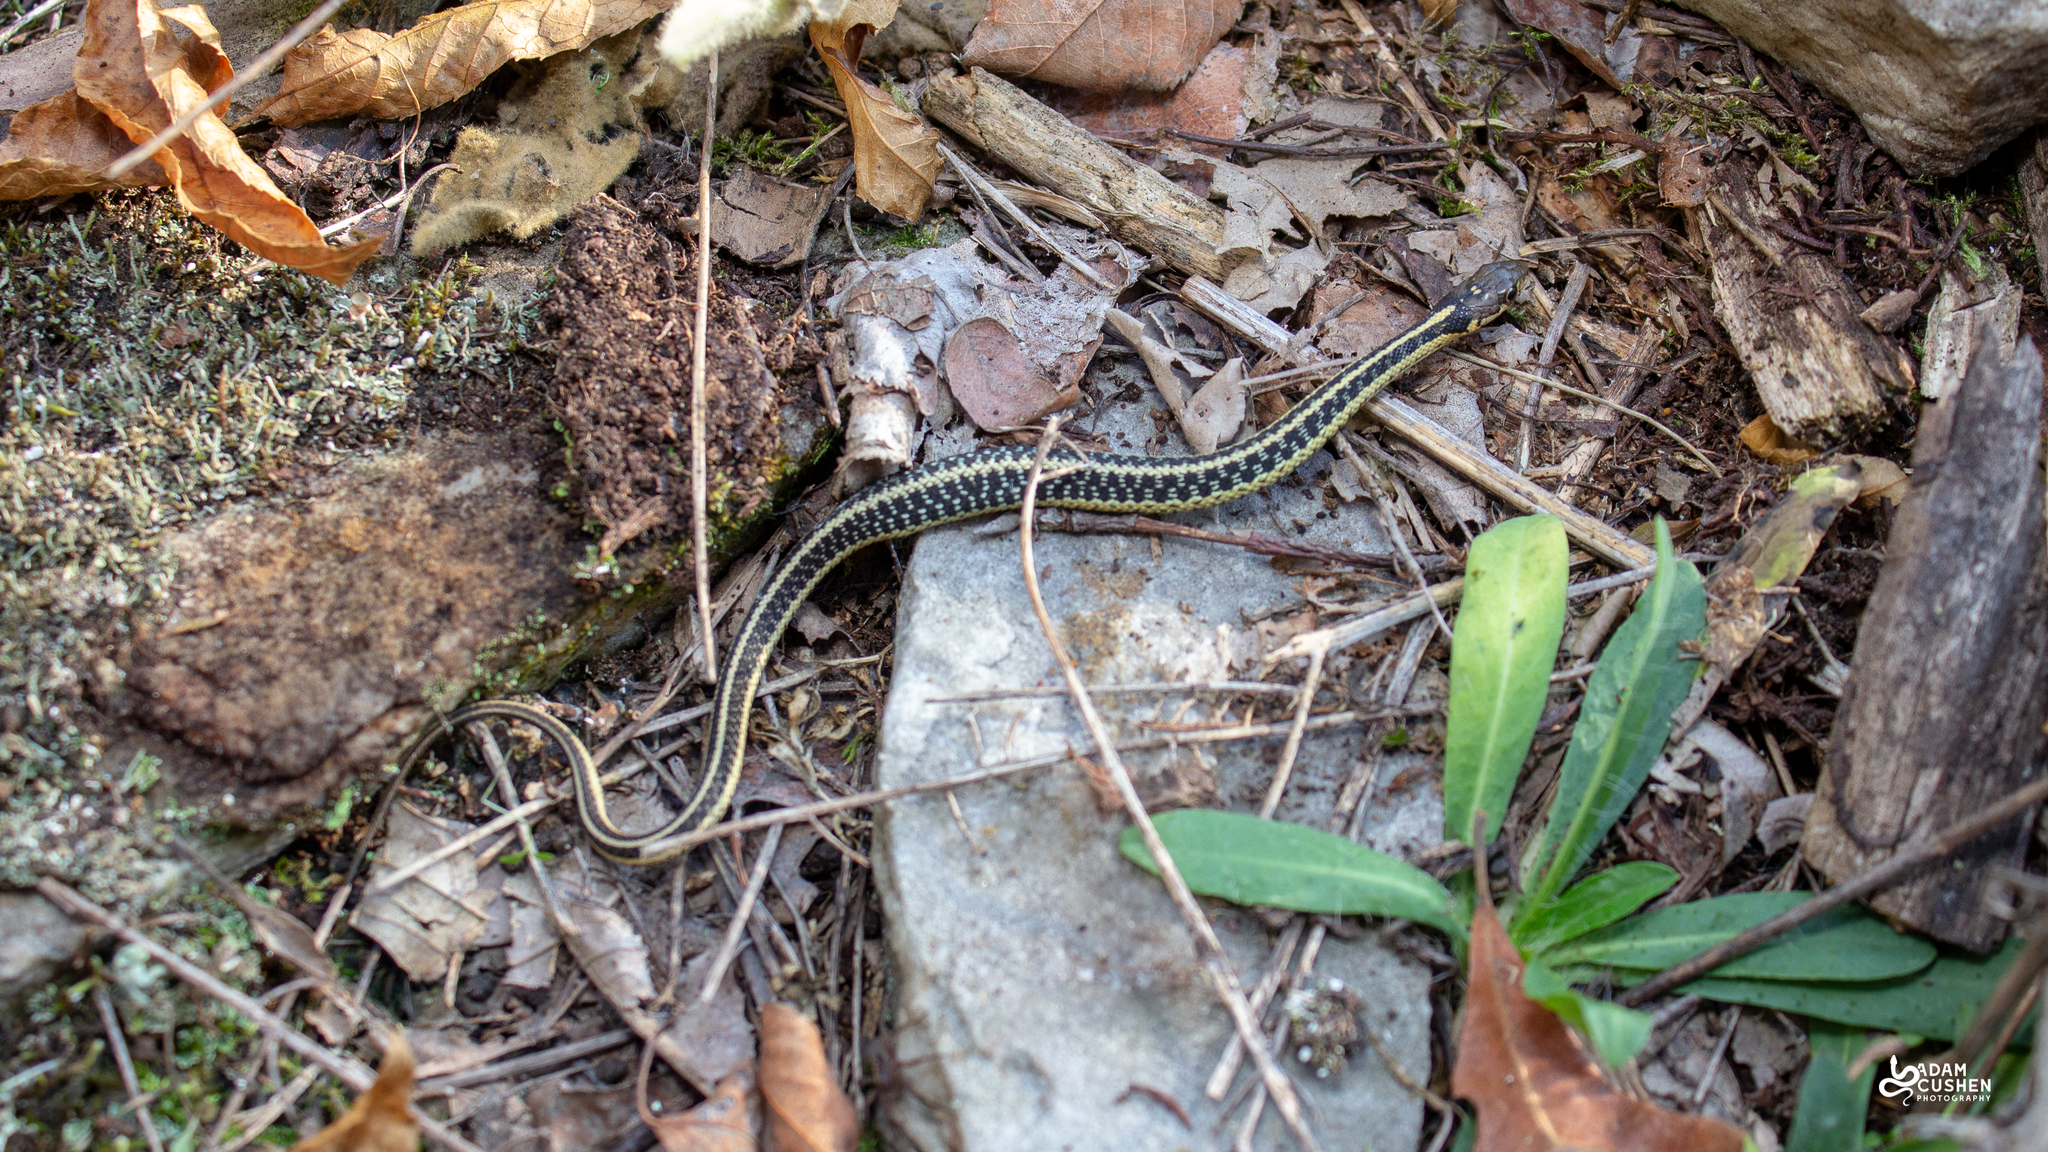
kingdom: Animalia
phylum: Chordata
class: Squamata
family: Colubridae
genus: Thamnophis
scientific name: Thamnophis sirtalis
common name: Common garter snake
